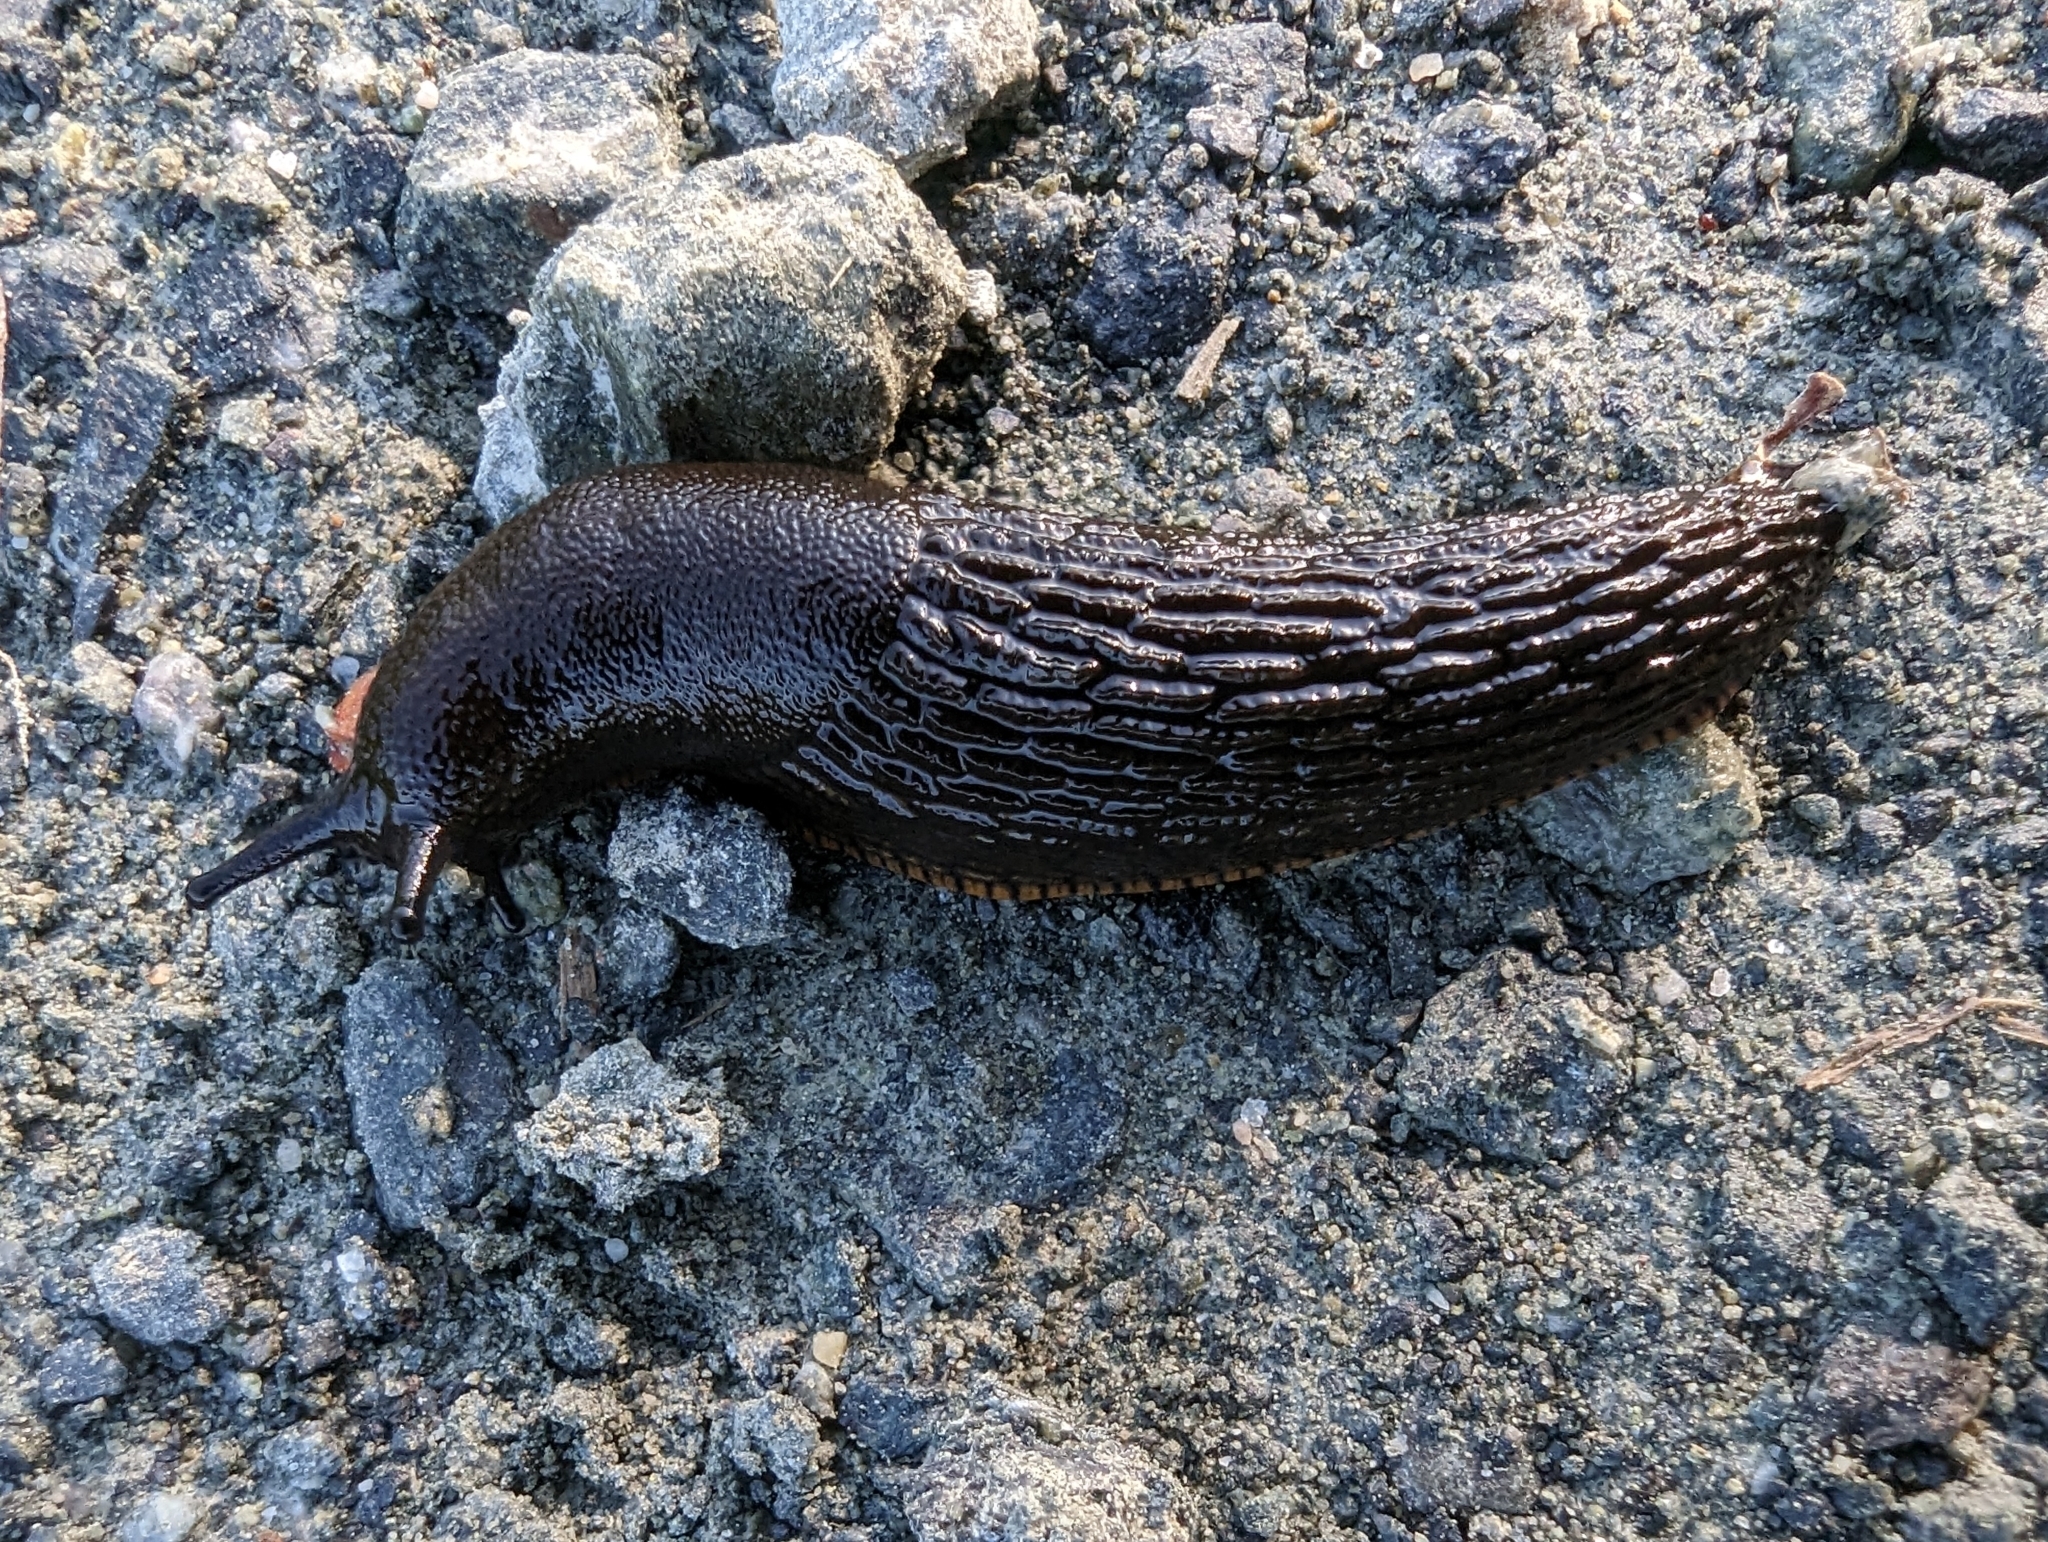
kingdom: Animalia
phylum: Mollusca
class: Gastropoda
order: Stylommatophora
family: Arionidae
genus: Arion
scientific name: Arion
